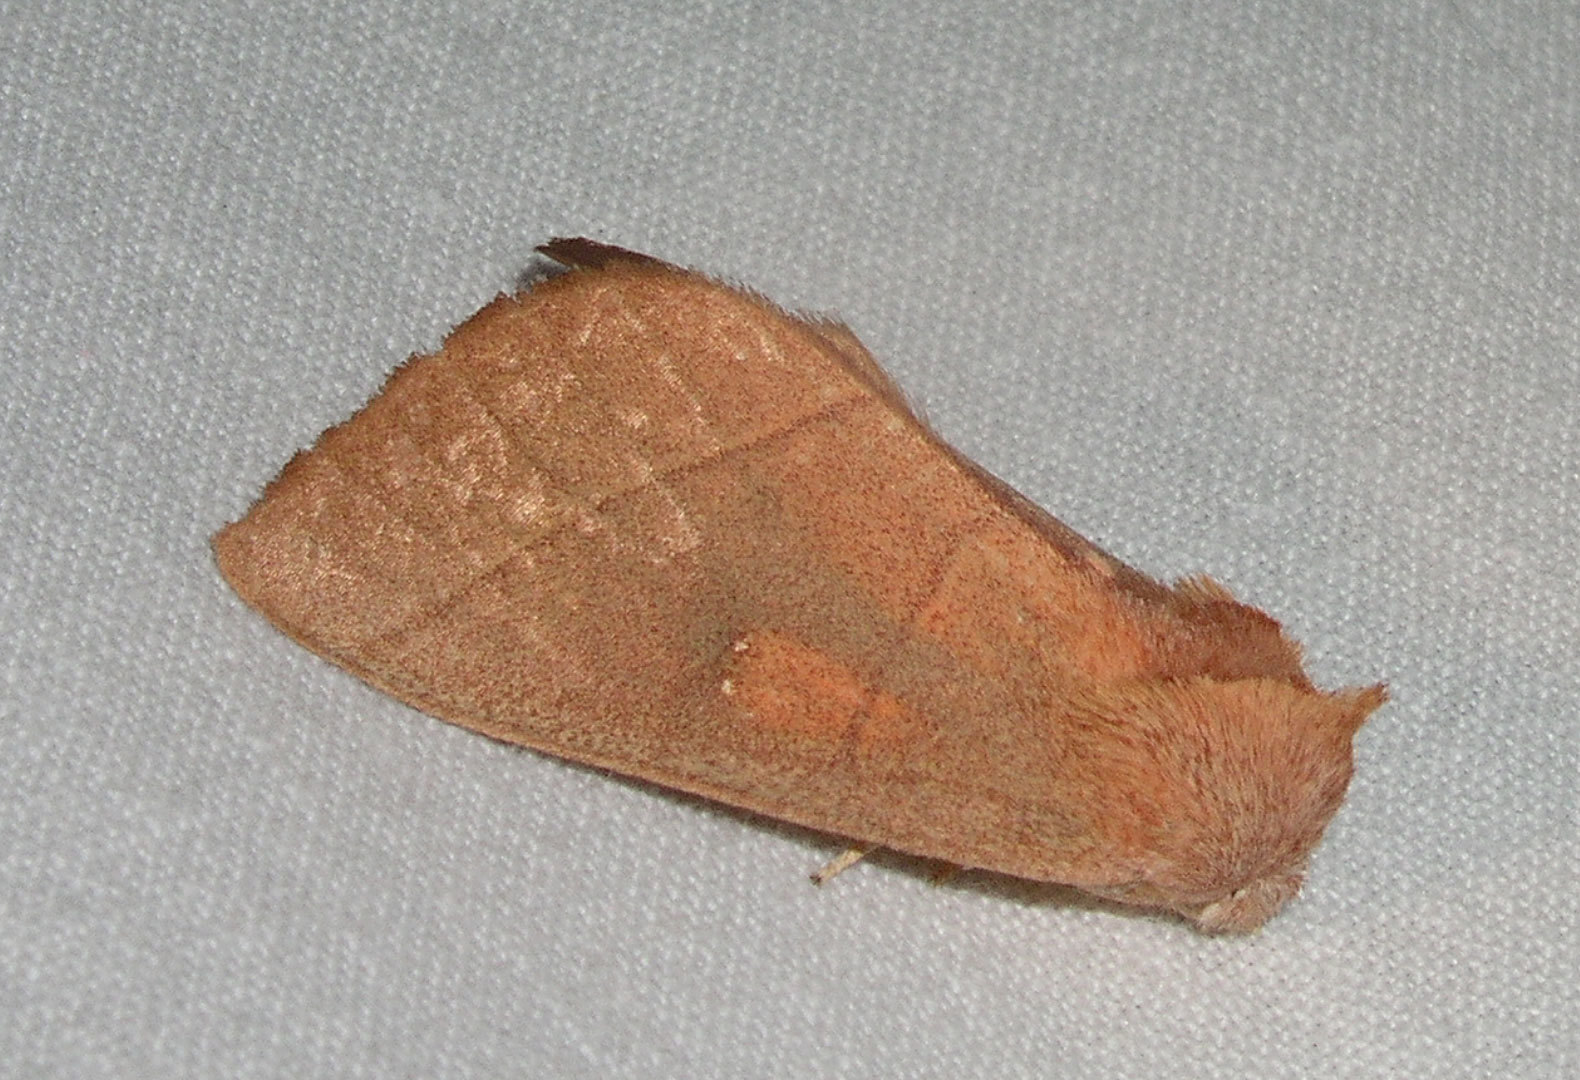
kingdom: Animalia
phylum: Arthropoda
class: Insecta
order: Lepidoptera
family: Notodontidae
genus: Nadata
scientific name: Nadata gibbosa
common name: White-dotted prominent
